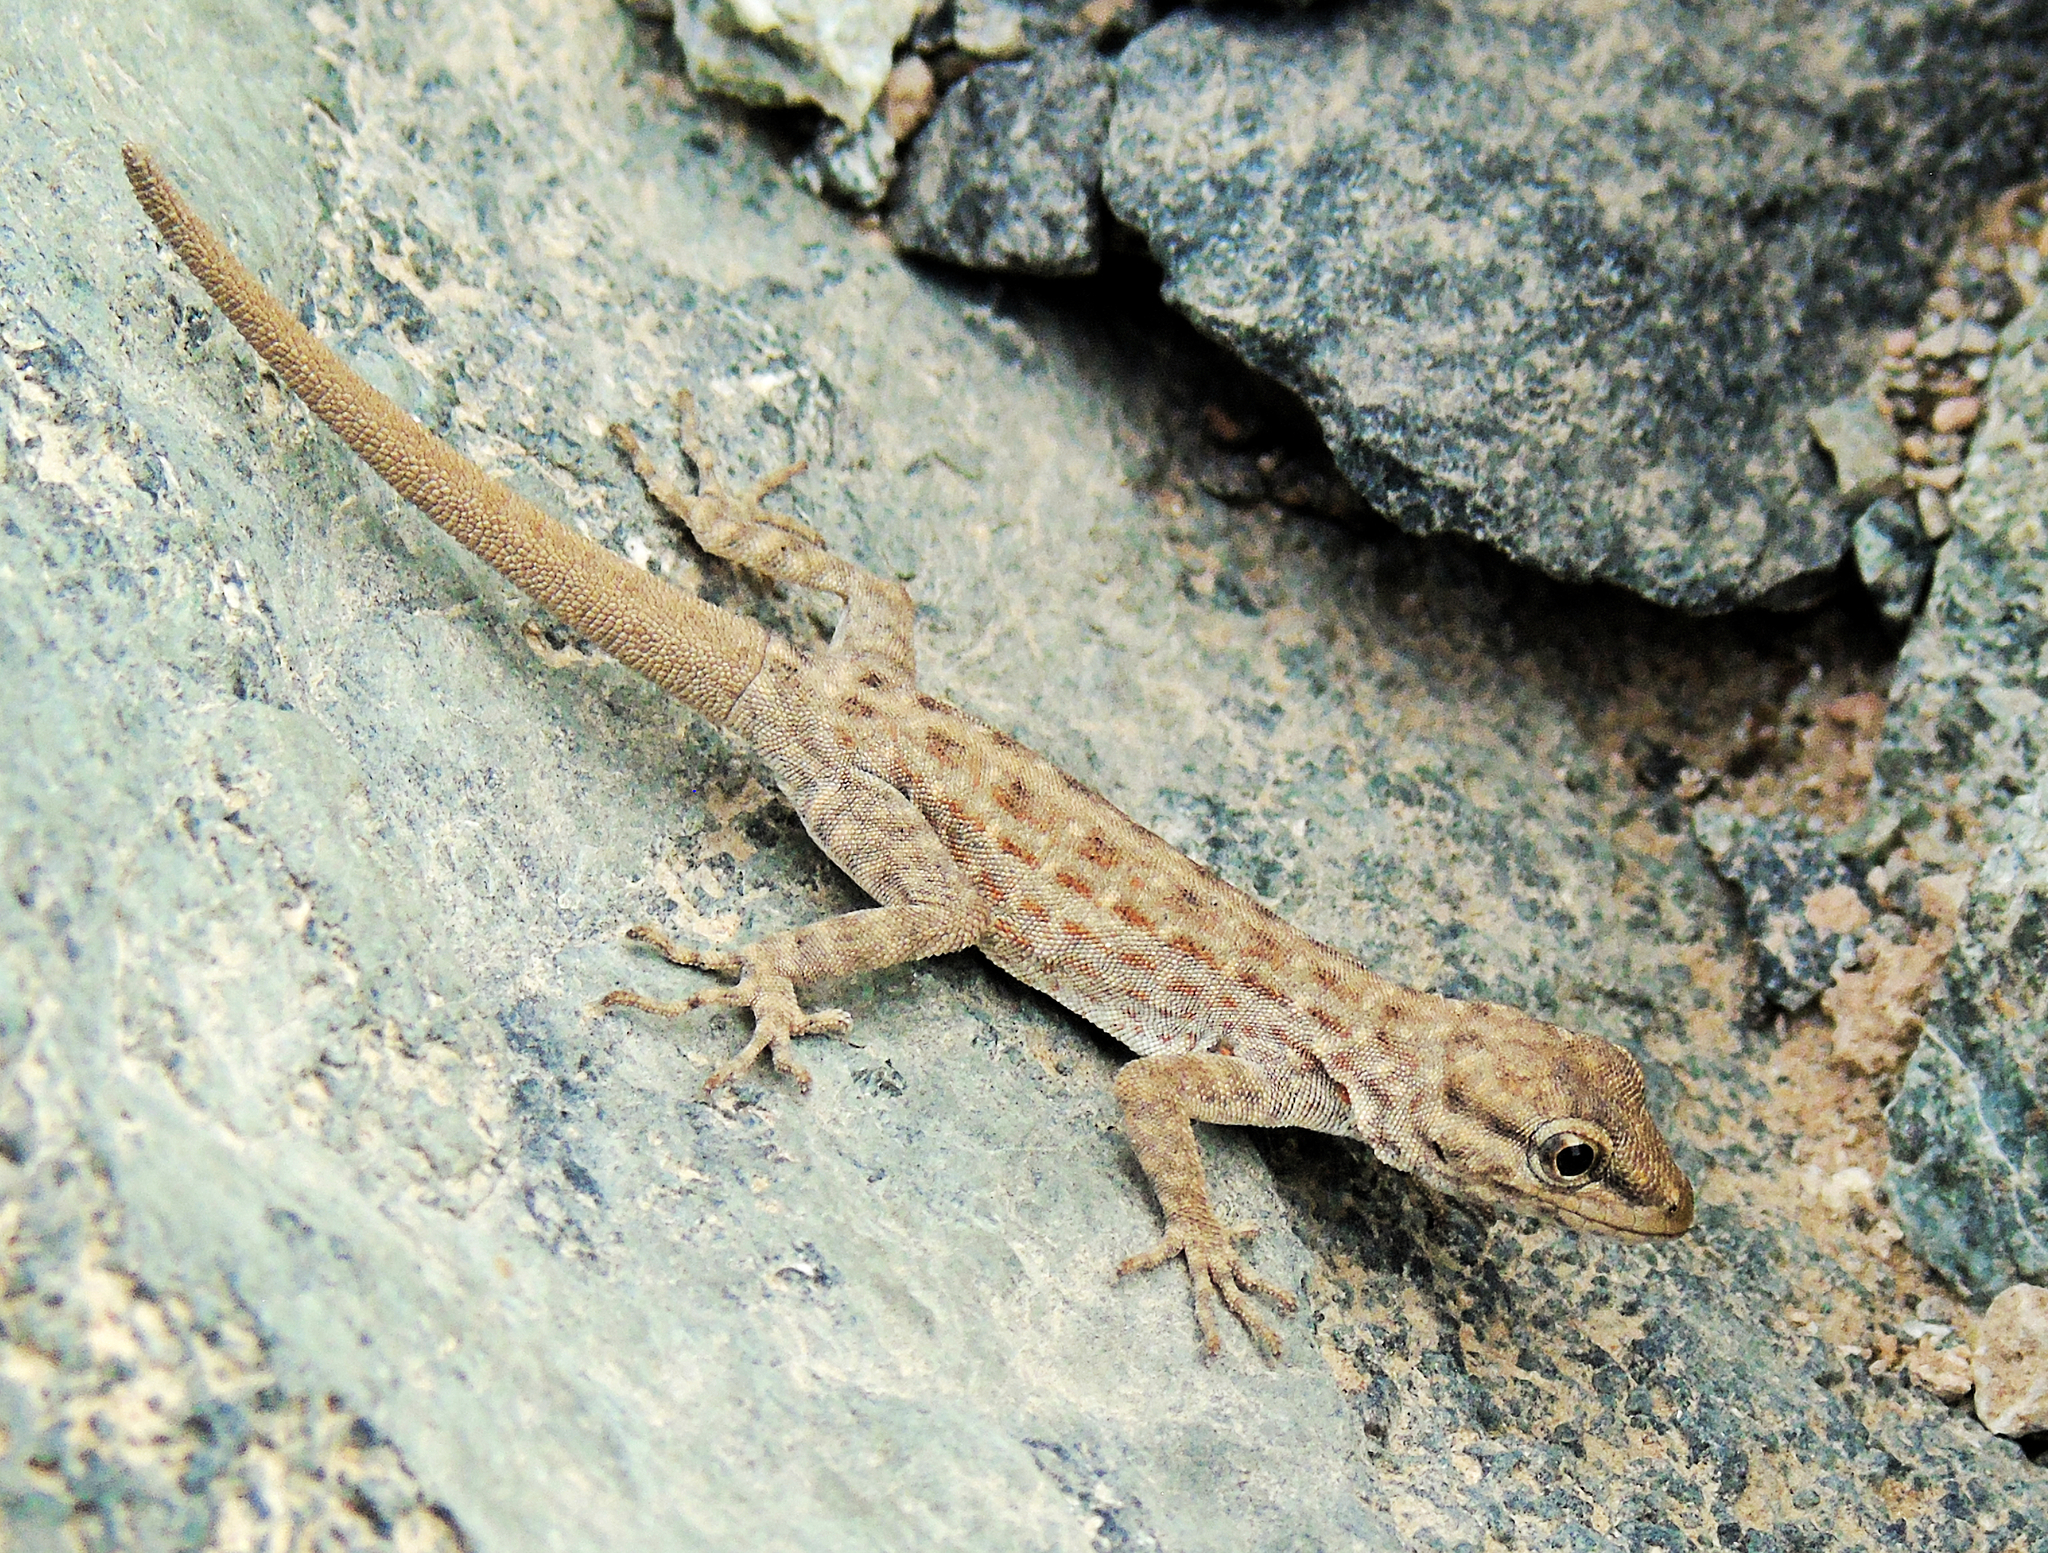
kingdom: Animalia
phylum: Chordata
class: Squamata
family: Sphaerodactylidae
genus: Pristurus
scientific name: Pristurus rupestris
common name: Blanford’s semaphore gecko
